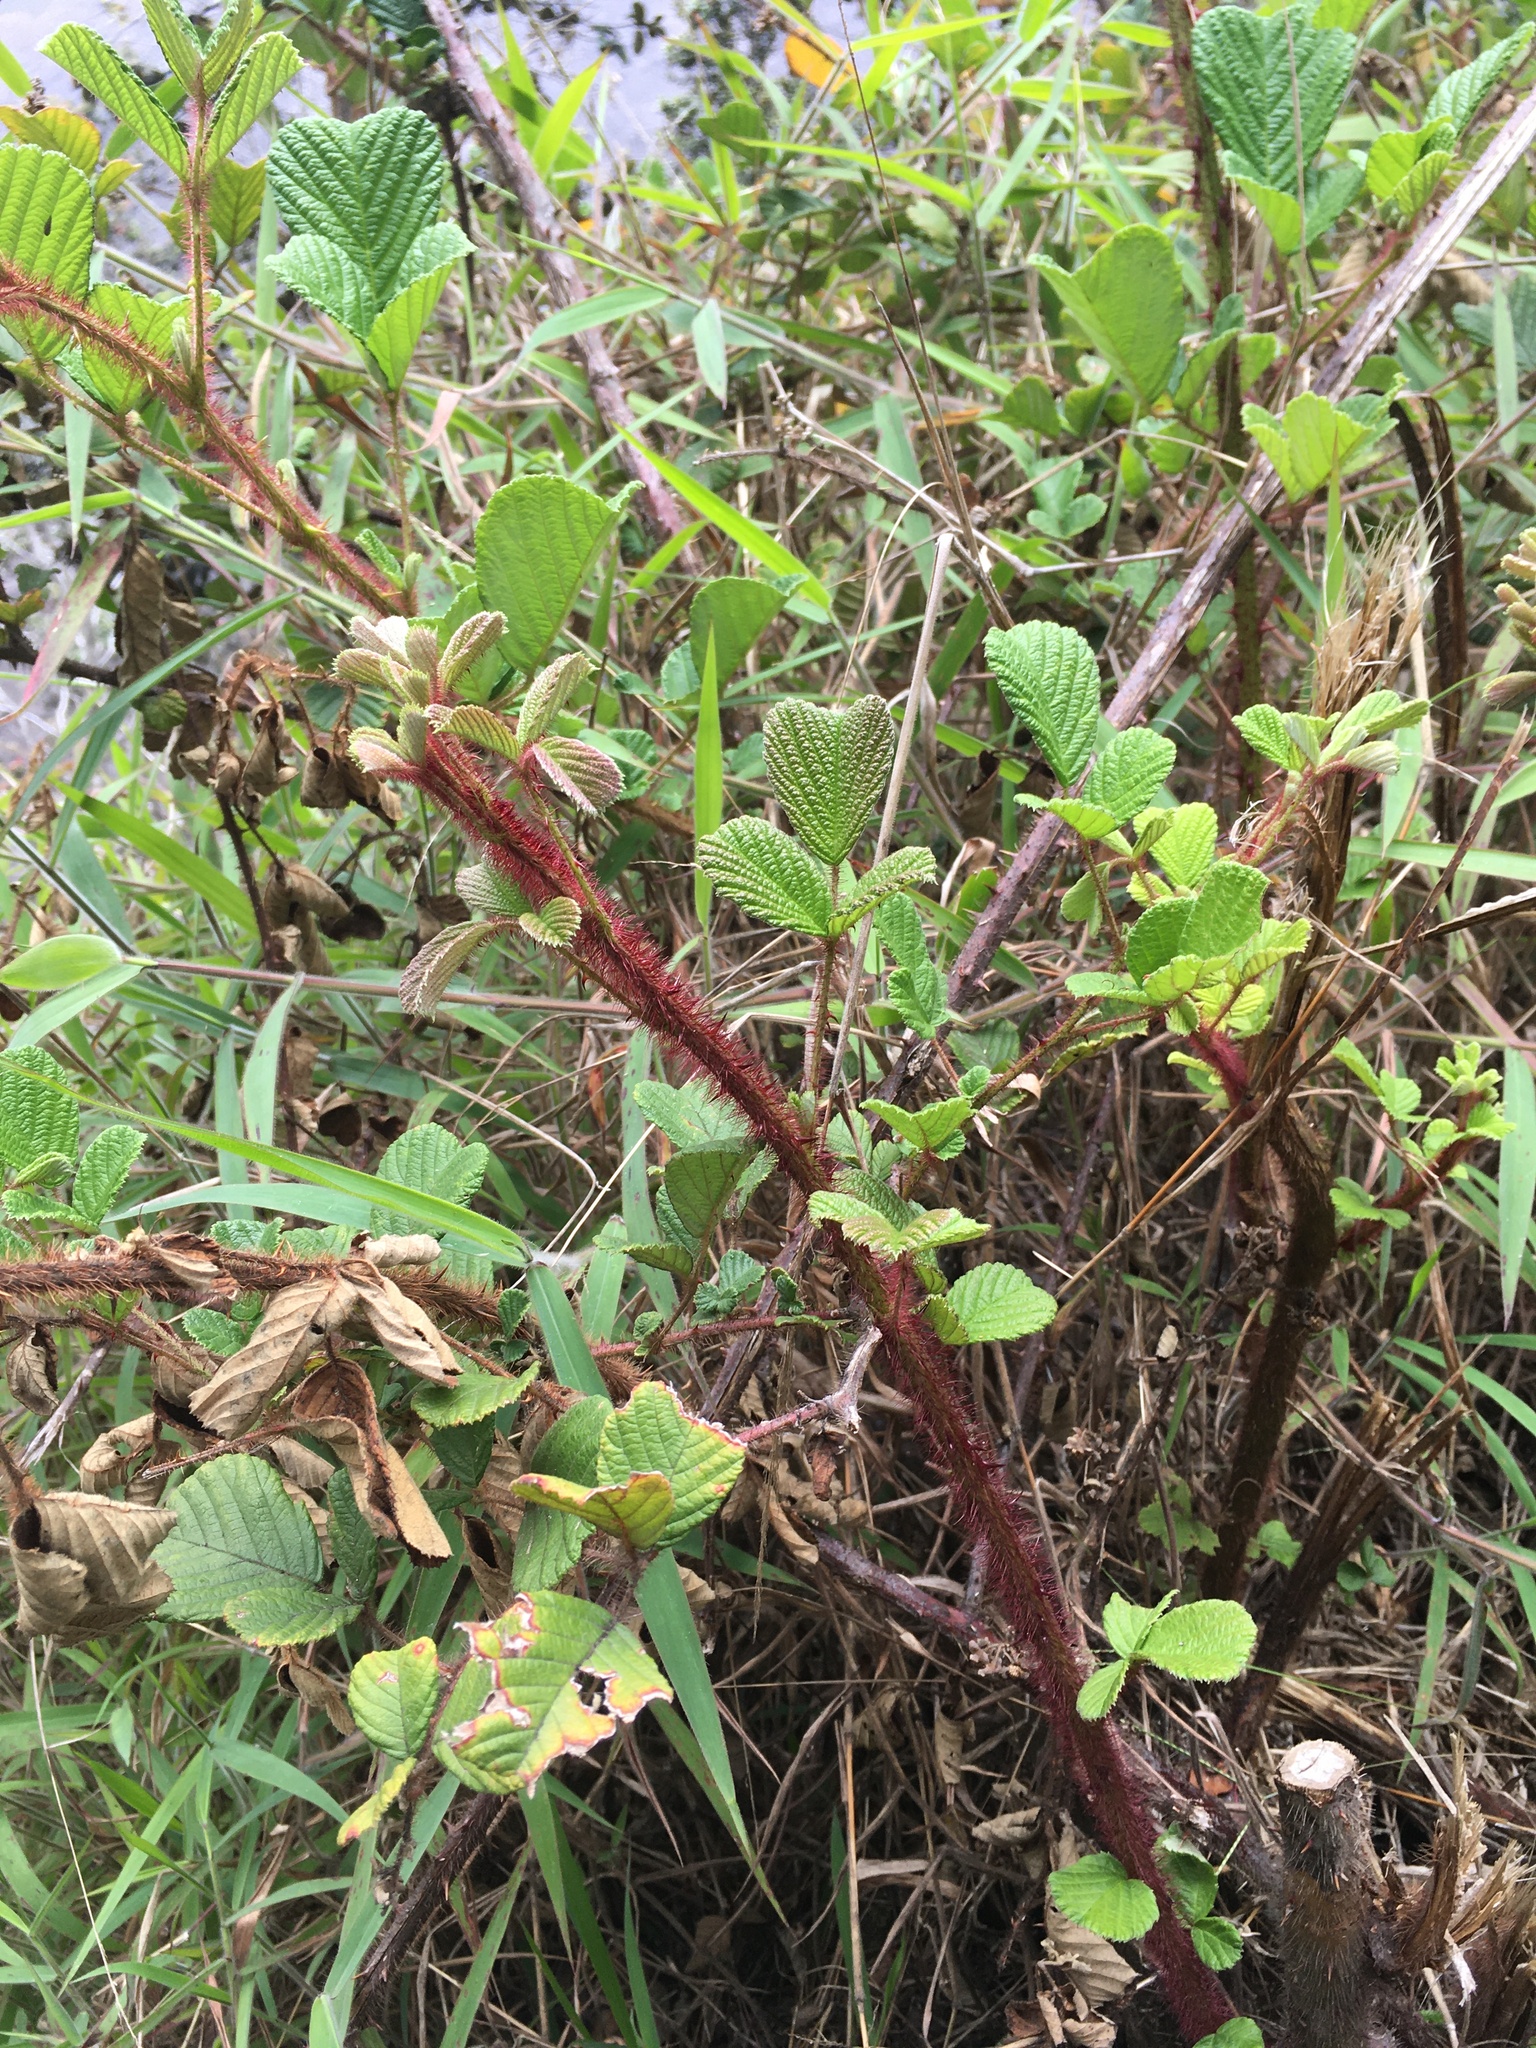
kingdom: Plantae
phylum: Tracheophyta
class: Magnoliopsida
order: Rosales
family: Rosaceae
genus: Rubus
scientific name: Rubus ellipticus
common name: Cheeseberry
